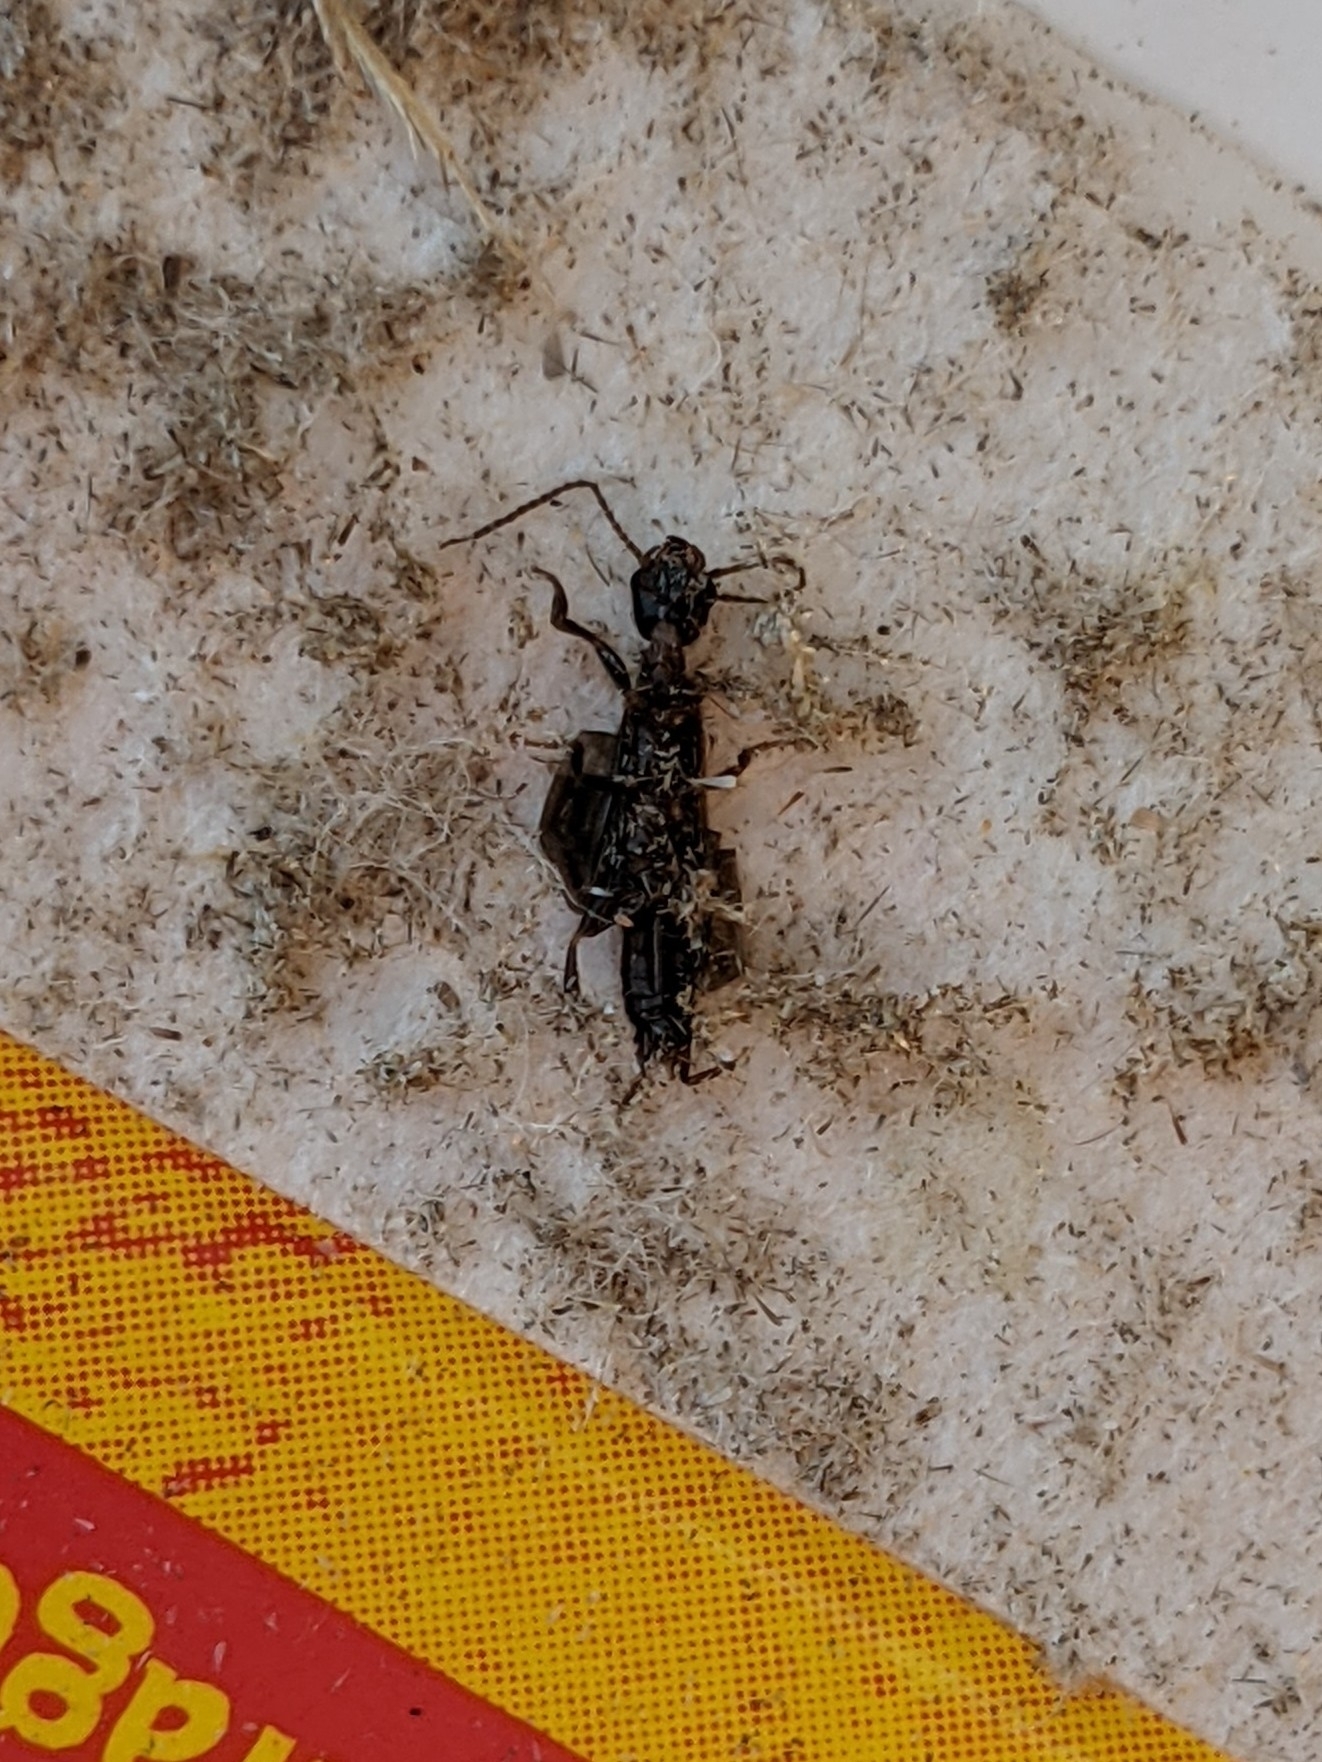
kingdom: Animalia
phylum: Arthropoda
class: Insecta
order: Embioptera
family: Oligotomidae
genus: Oligotoma
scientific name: Oligotoma nigra
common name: Black webspinner
